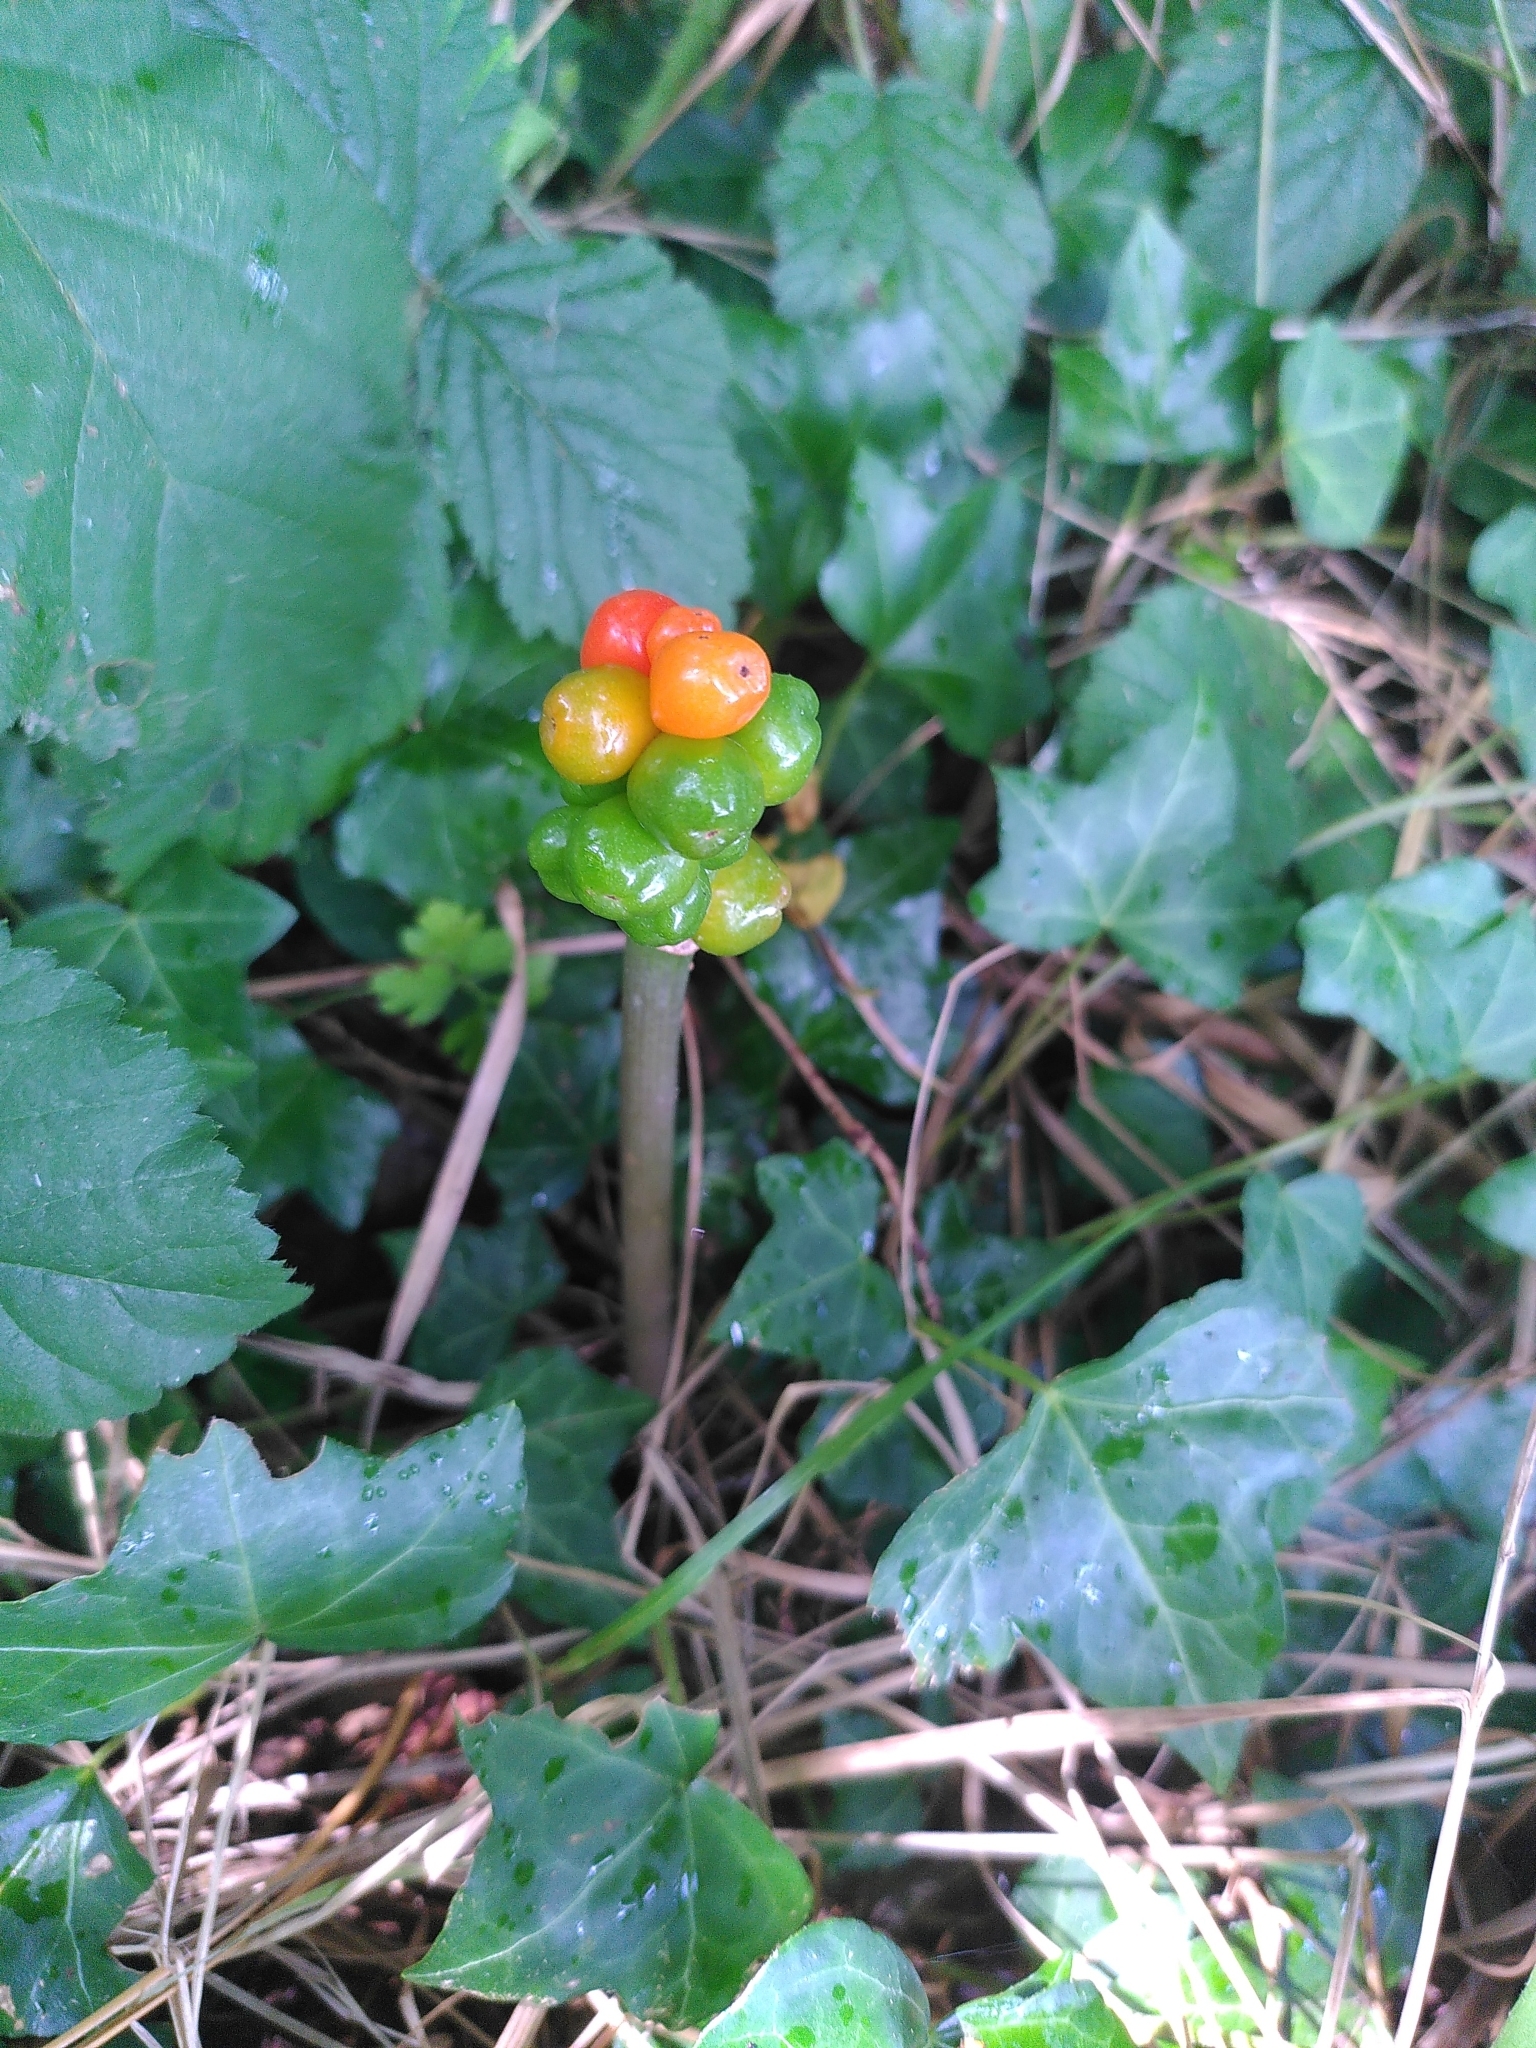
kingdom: Plantae
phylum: Tracheophyta
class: Liliopsida
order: Alismatales
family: Araceae
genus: Arum
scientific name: Arum
